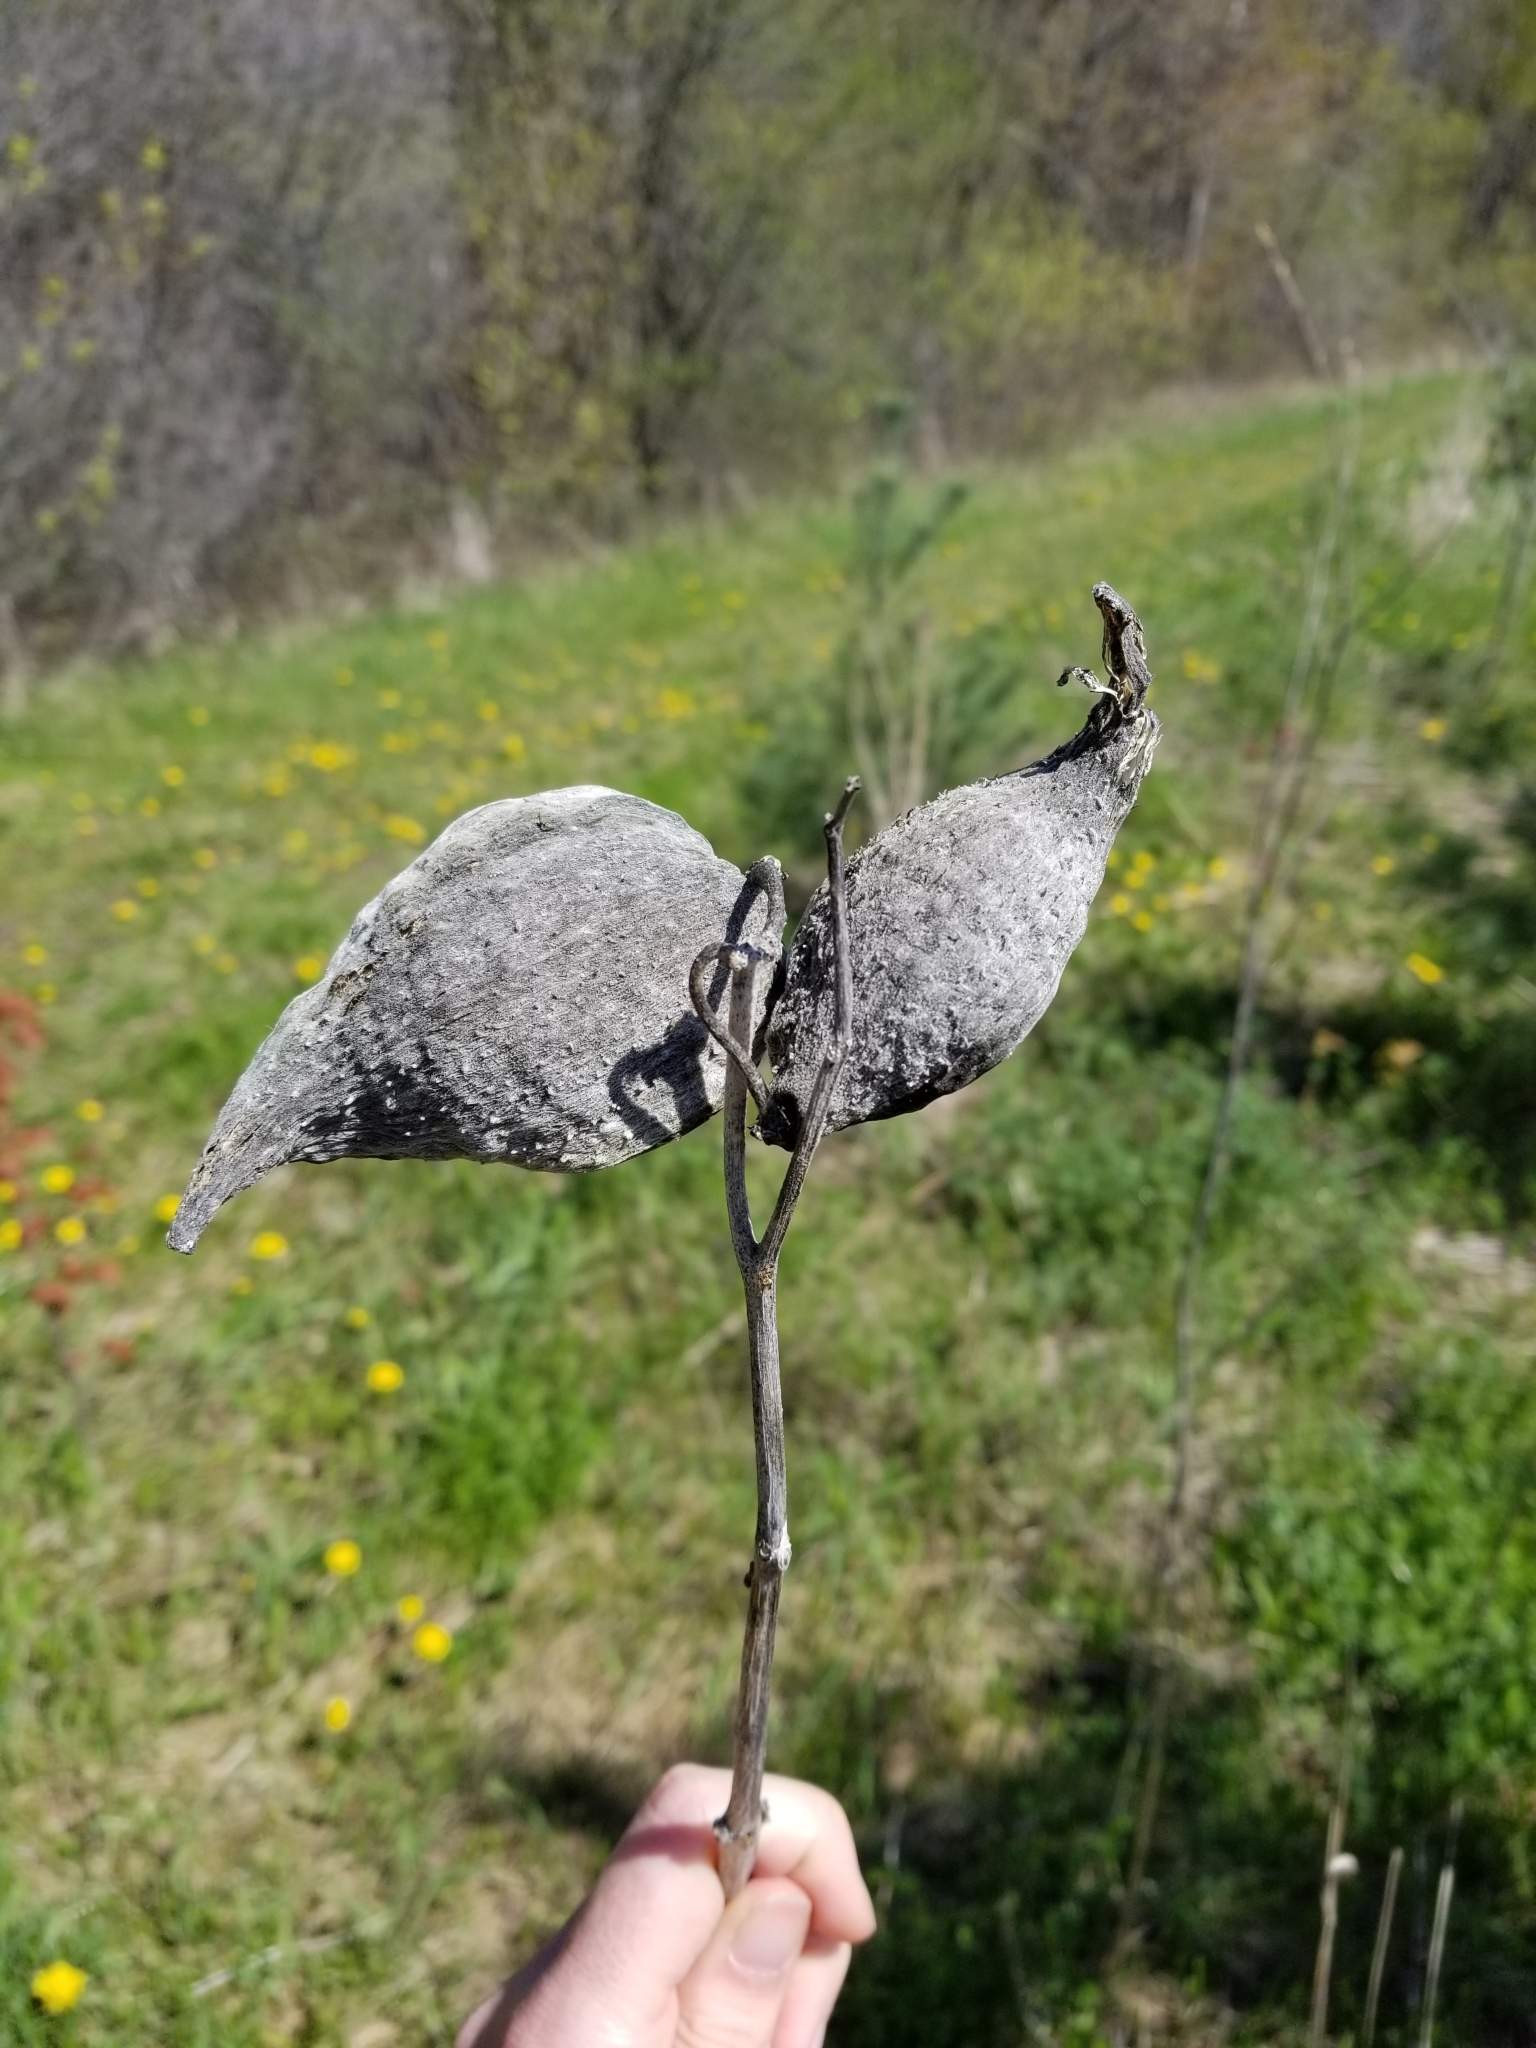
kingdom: Plantae
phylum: Tracheophyta
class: Magnoliopsida
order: Gentianales
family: Apocynaceae
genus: Asclepias
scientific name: Asclepias syriaca
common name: Common milkweed
